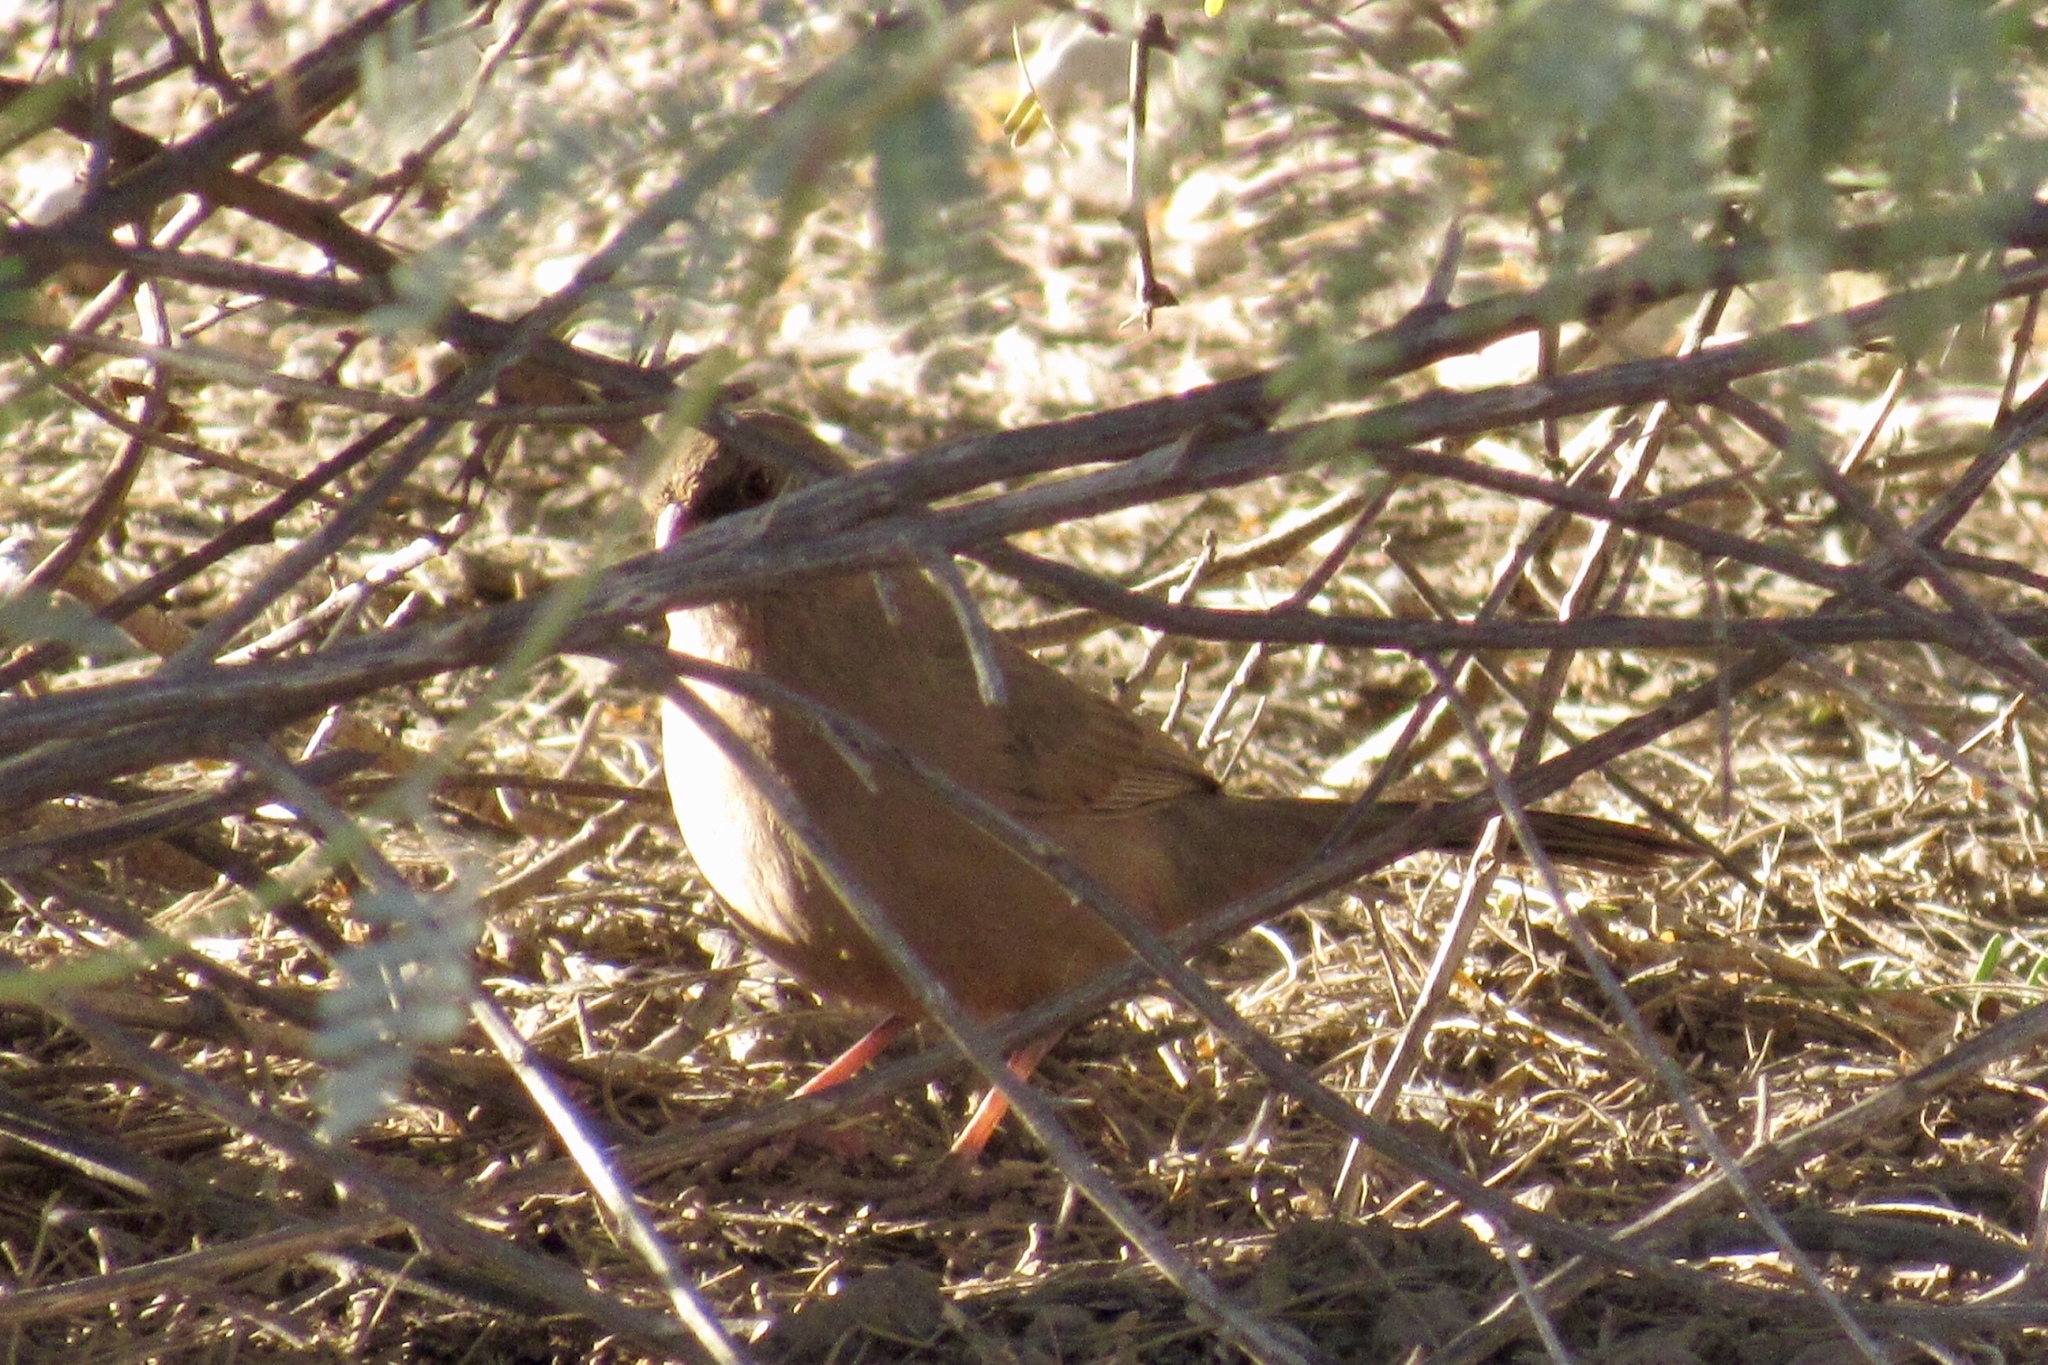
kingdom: Animalia
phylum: Chordata
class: Aves
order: Passeriformes
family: Passerellidae
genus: Melozone
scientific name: Melozone aberti
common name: Abert's towhee
